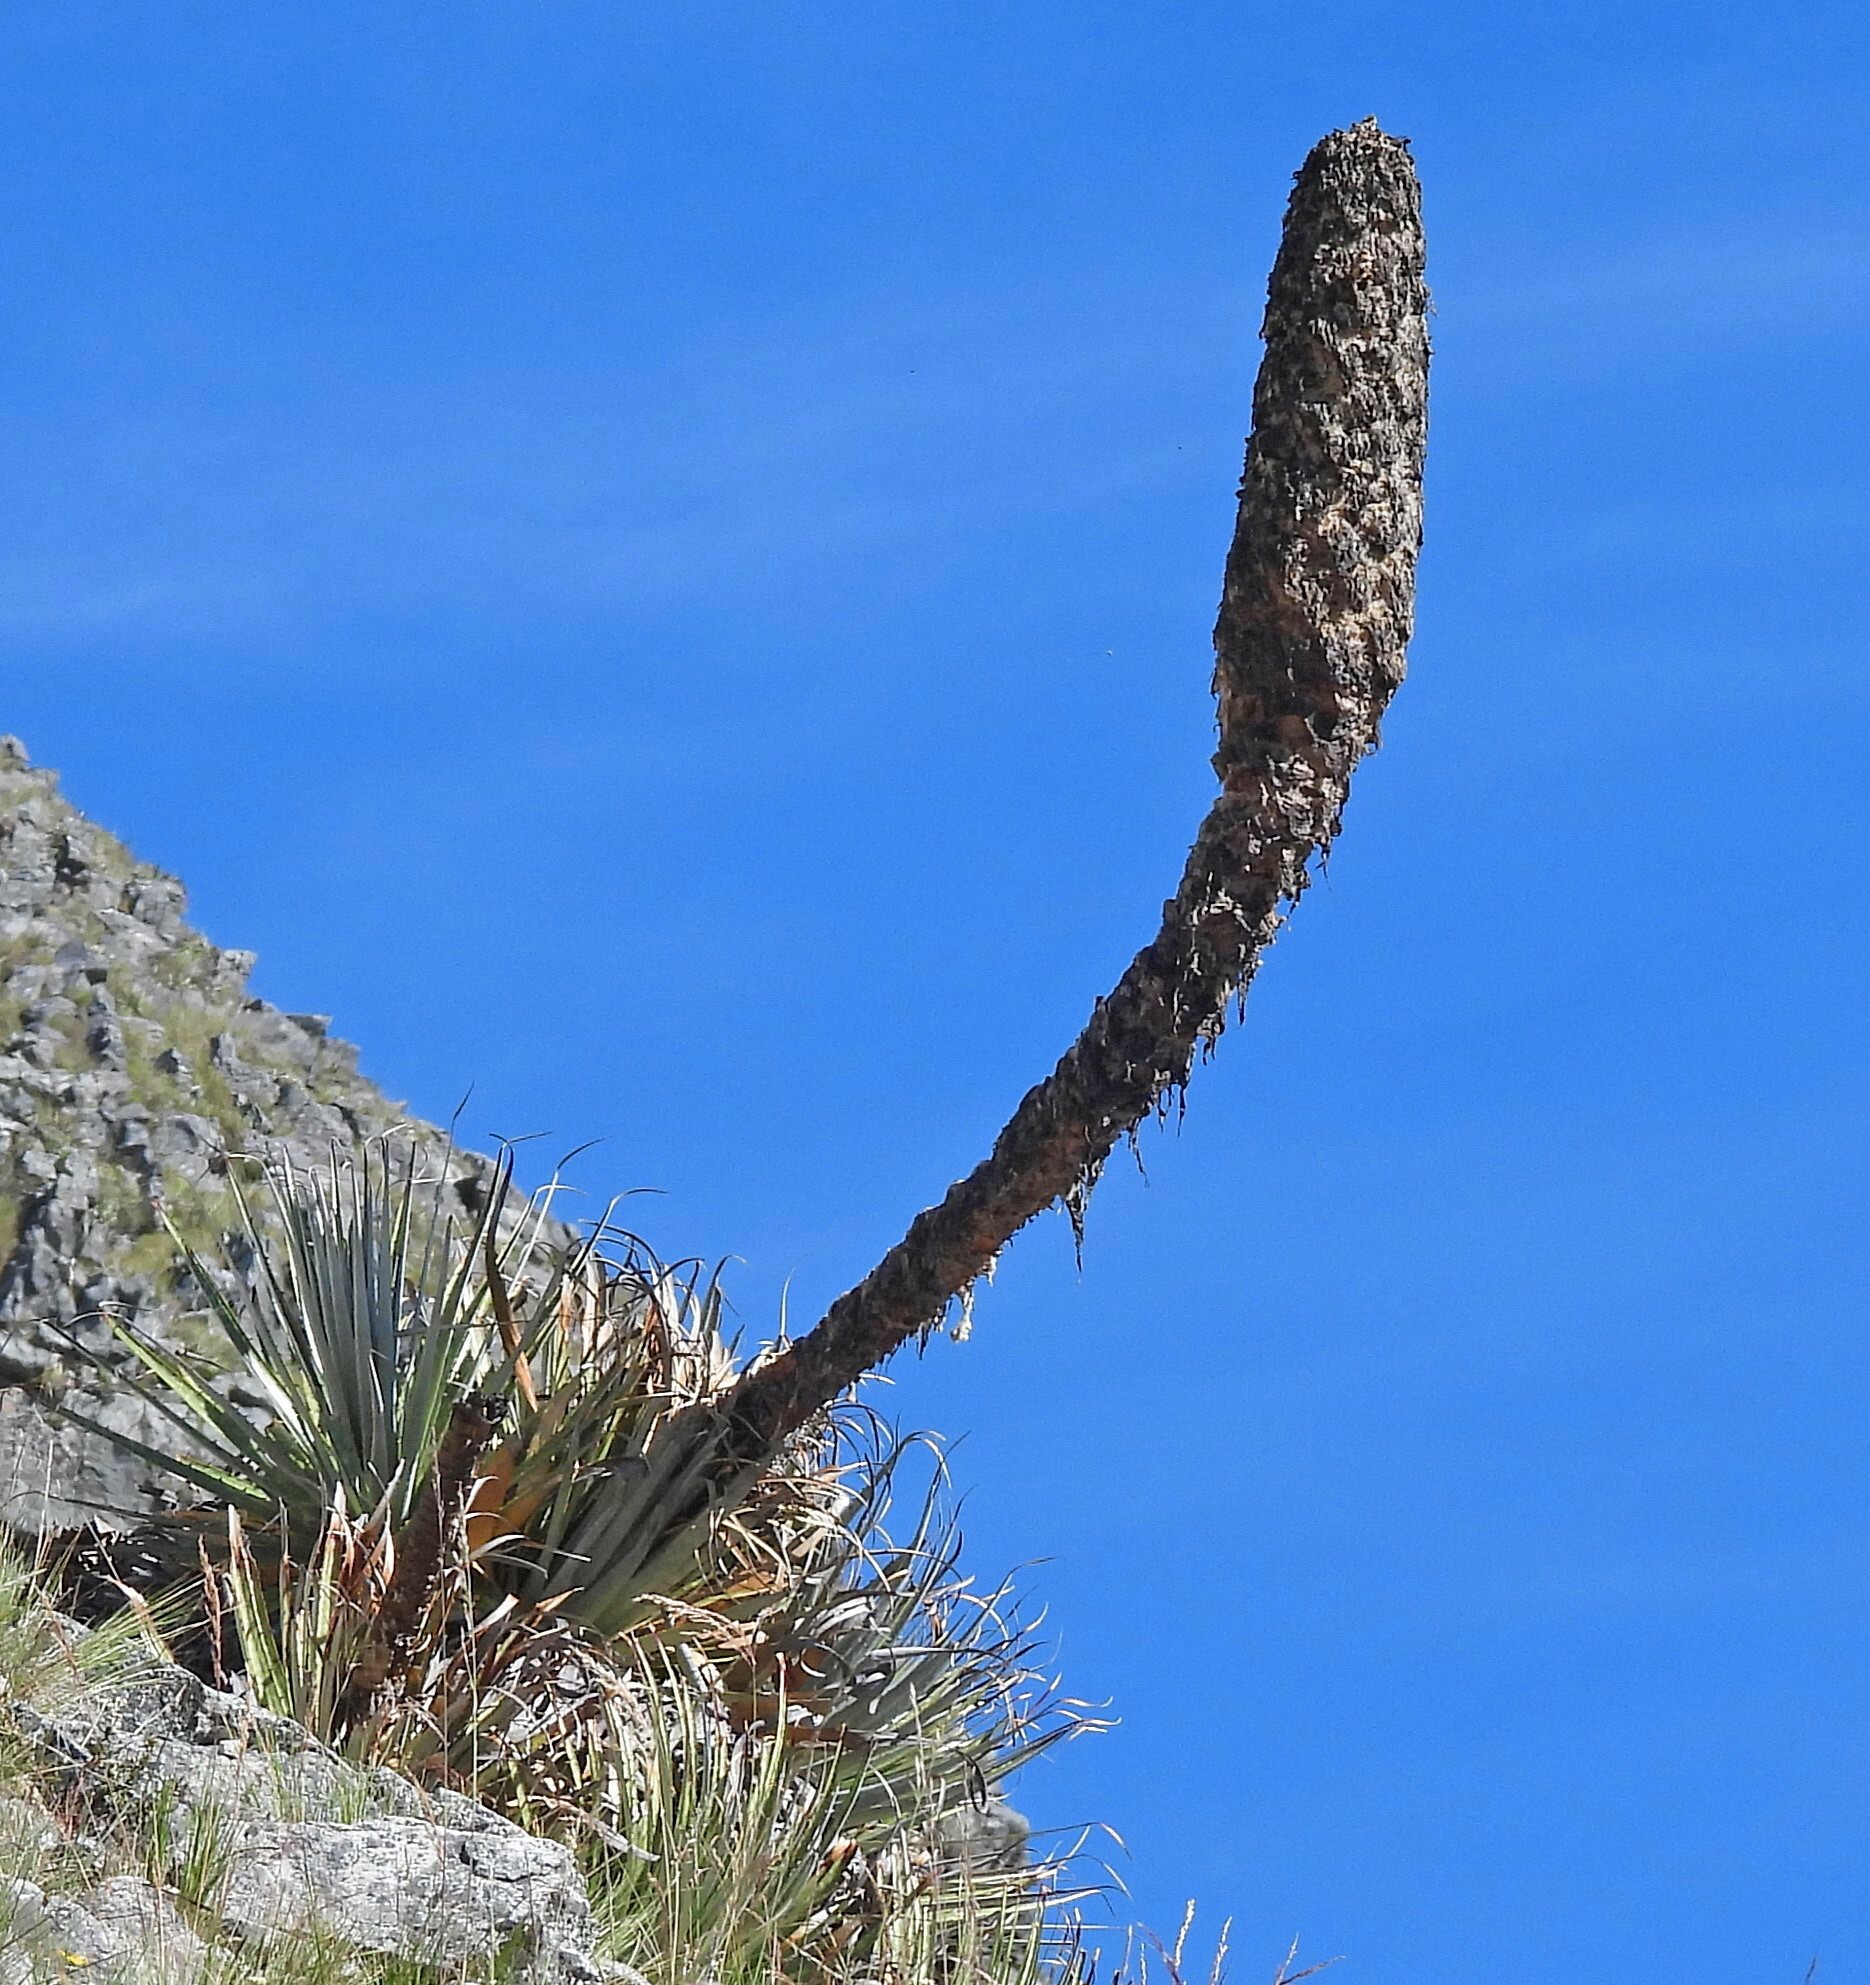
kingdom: Plantae
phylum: Tracheophyta
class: Liliopsida
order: Poales
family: Bromeliaceae
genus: Puya
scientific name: Puya yakespala
